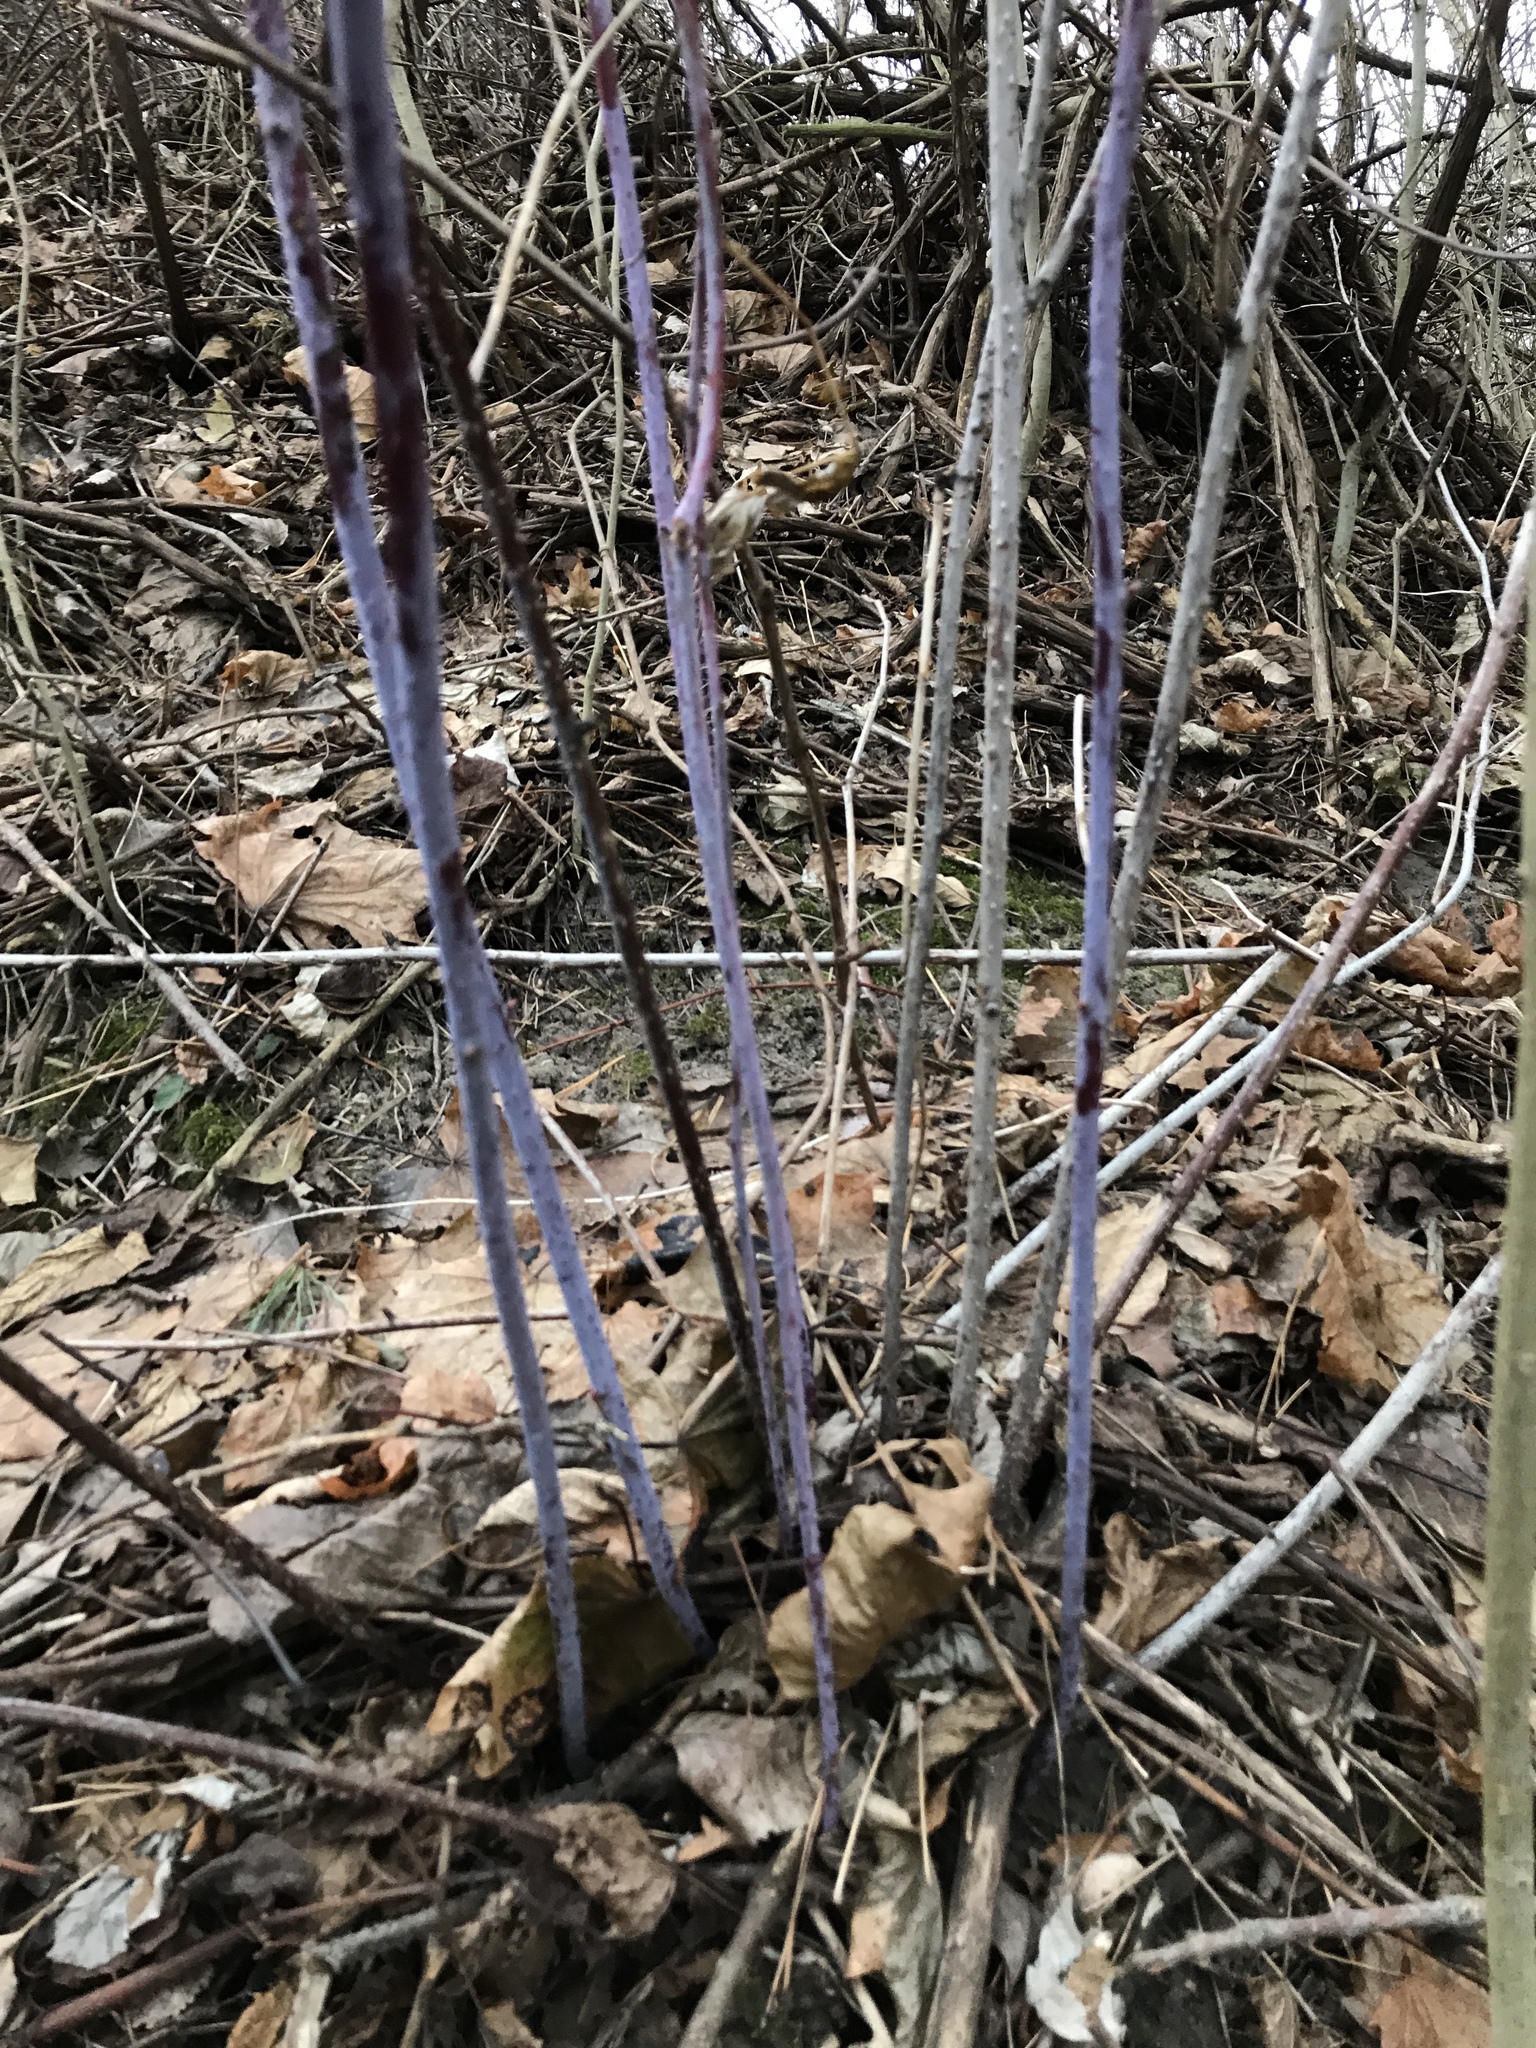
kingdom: Plantae
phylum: Tracheophyta
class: Magnoliopsida
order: Rosales
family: Rosaceae
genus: Rubus
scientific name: Rubus occidentalis
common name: Black raspberry
